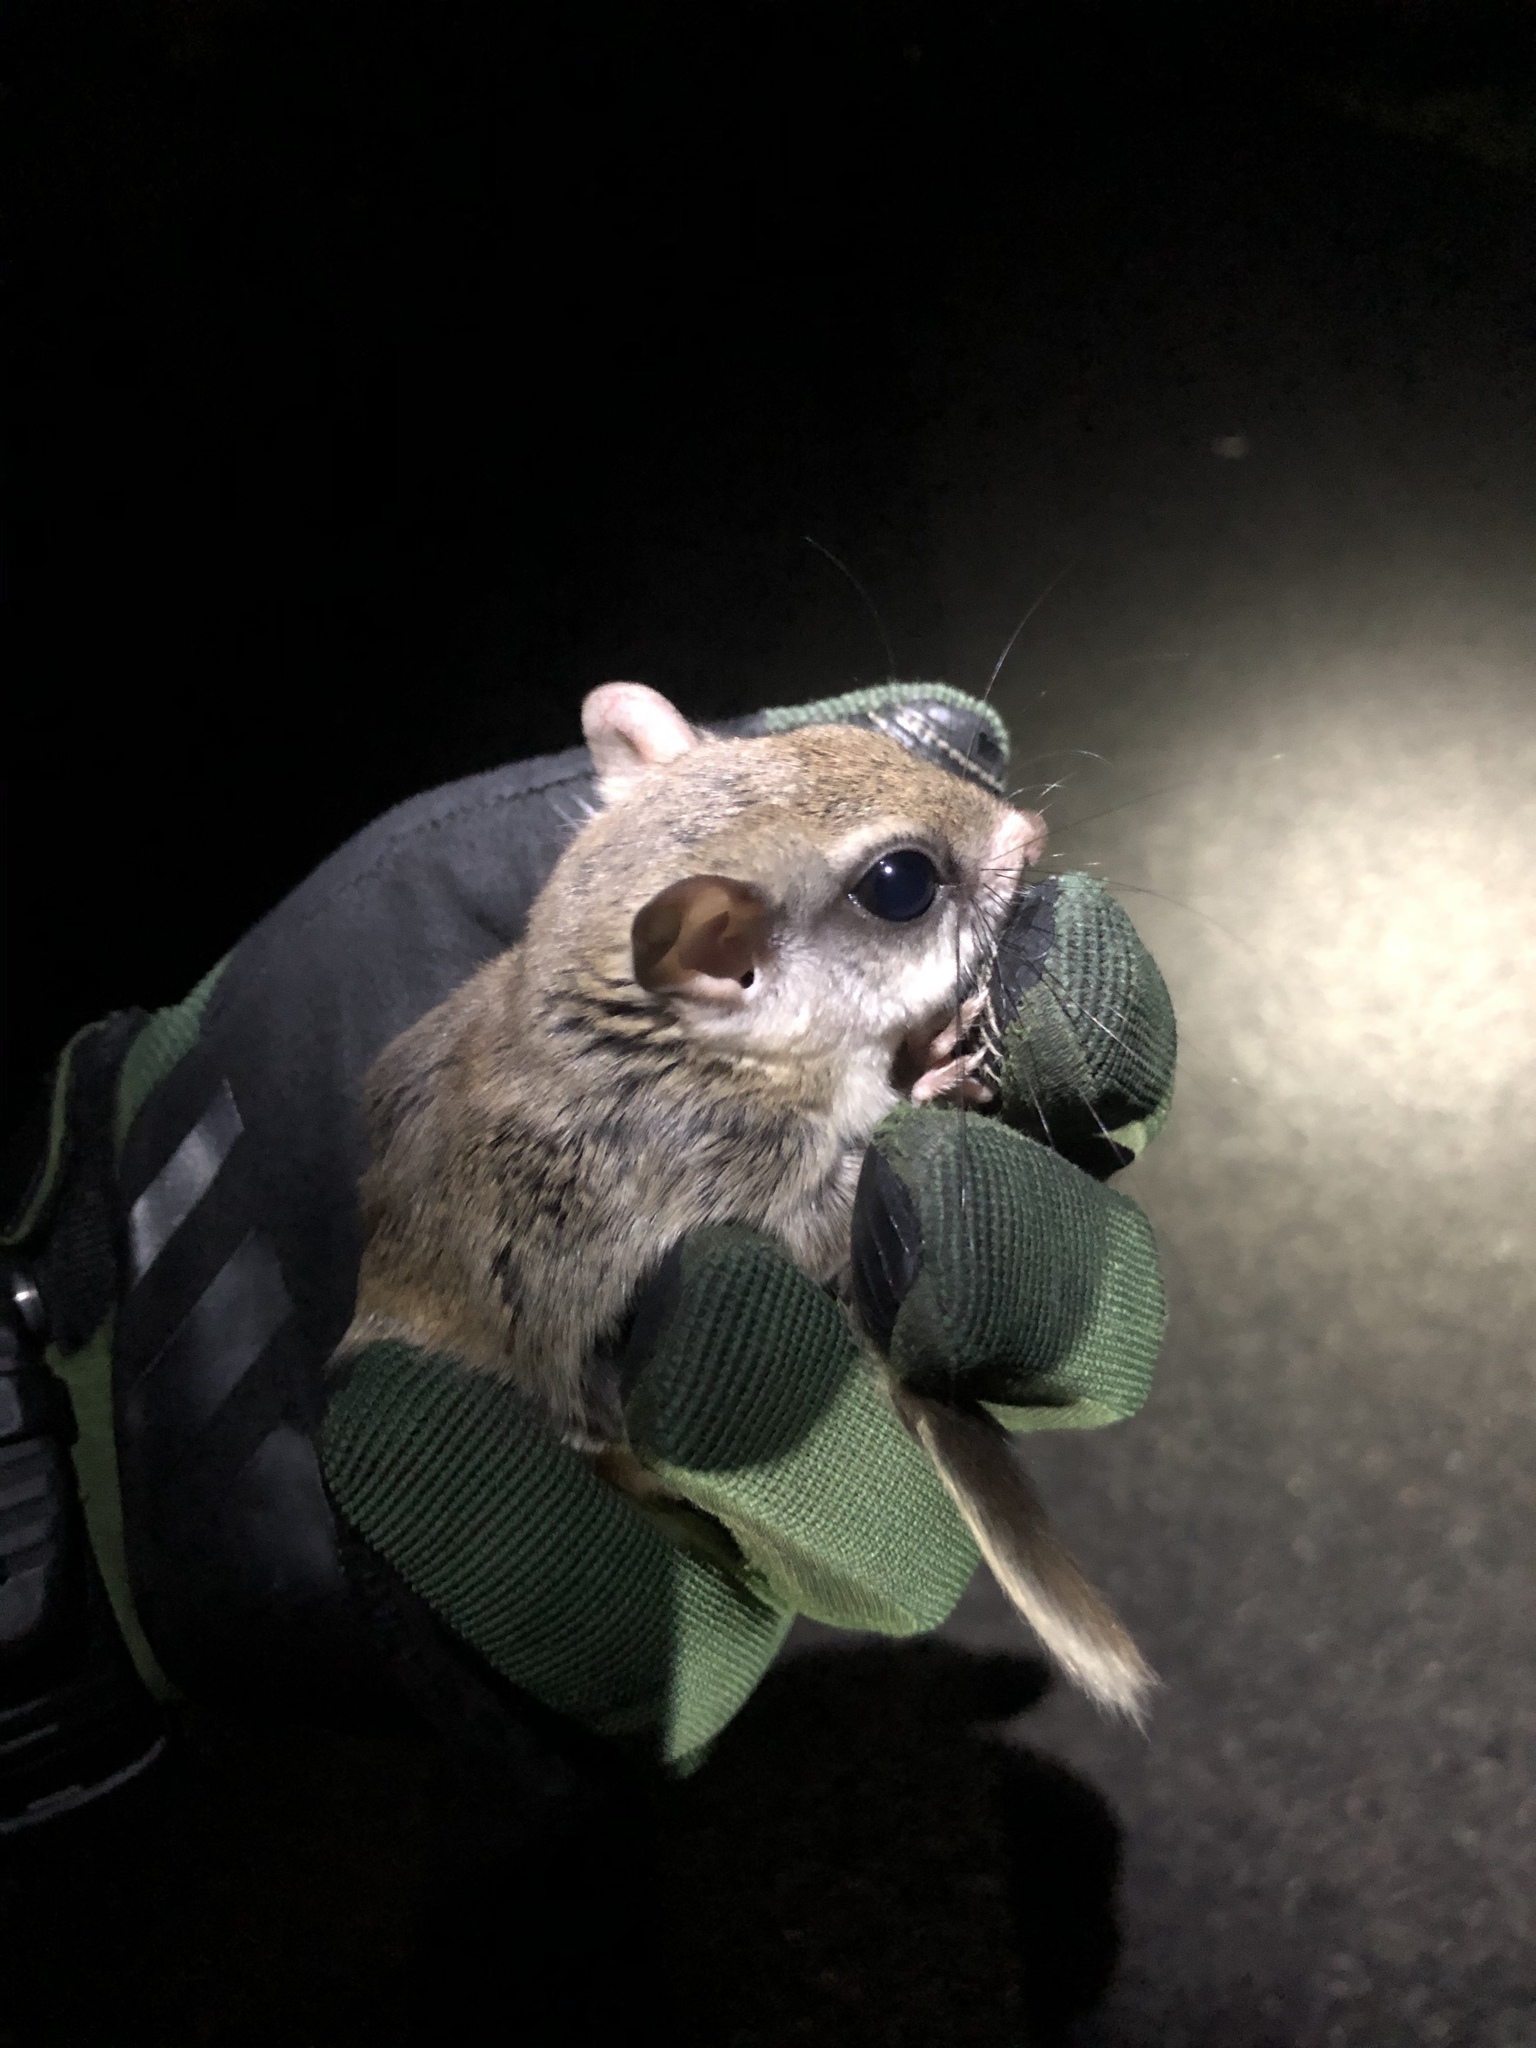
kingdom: Animalia
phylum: Chordata
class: Mammalia
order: Rodentia
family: Sciuridae
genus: Glaucomys
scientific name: Glaucomys
